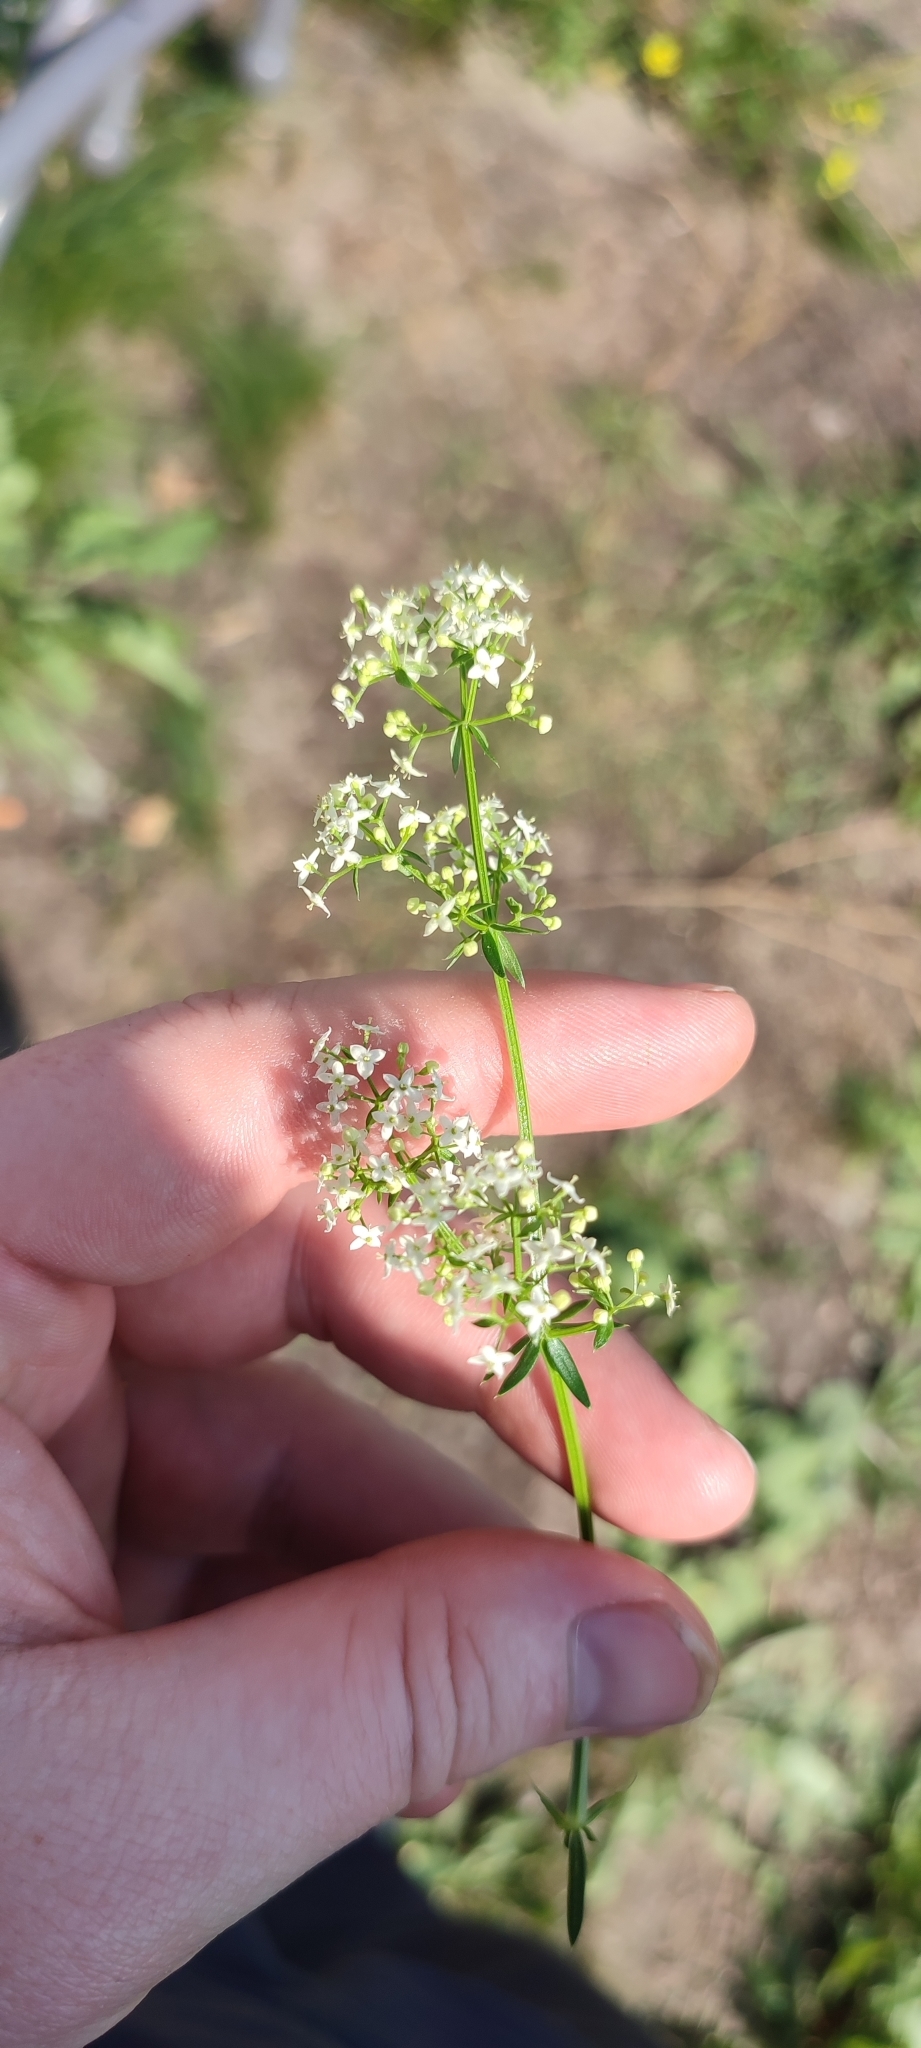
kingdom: Plantae
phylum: Tracheophyta
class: Magnoliopsida
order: Gentianales
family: Rubiaceae
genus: Galium
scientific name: Galium mollugo
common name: Hedge bedstraw
